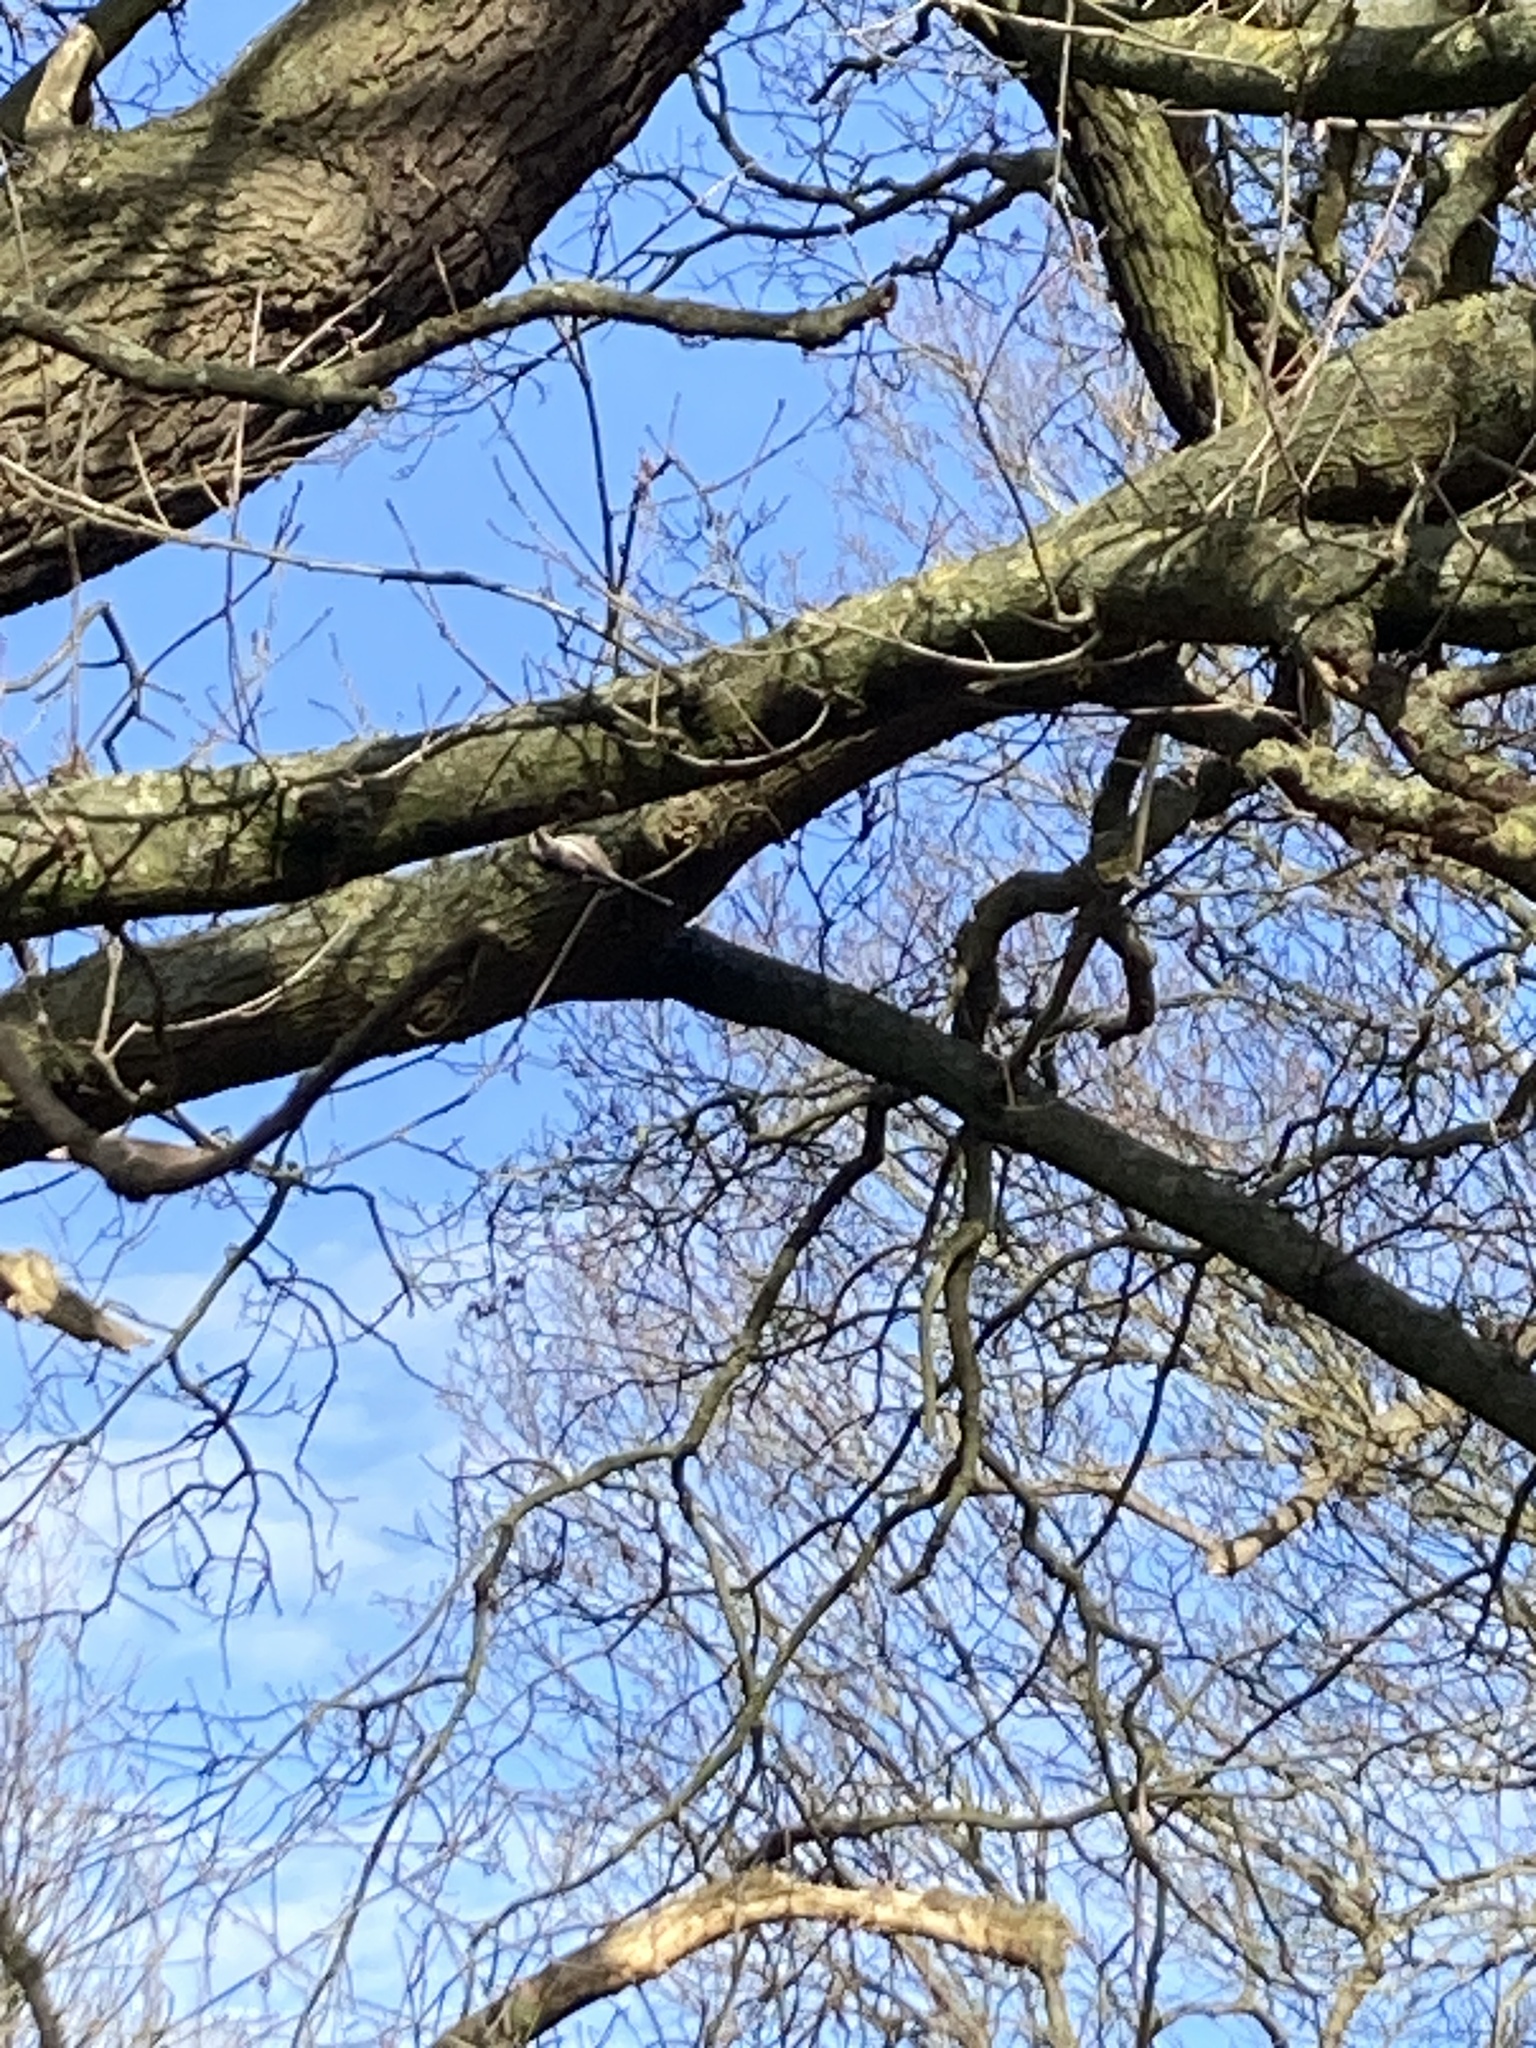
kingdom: Animalia
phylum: Chordata
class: Aves
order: Passeriformes
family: Aegithalidae
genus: Aegithalos
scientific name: Aegithalos caudatus
